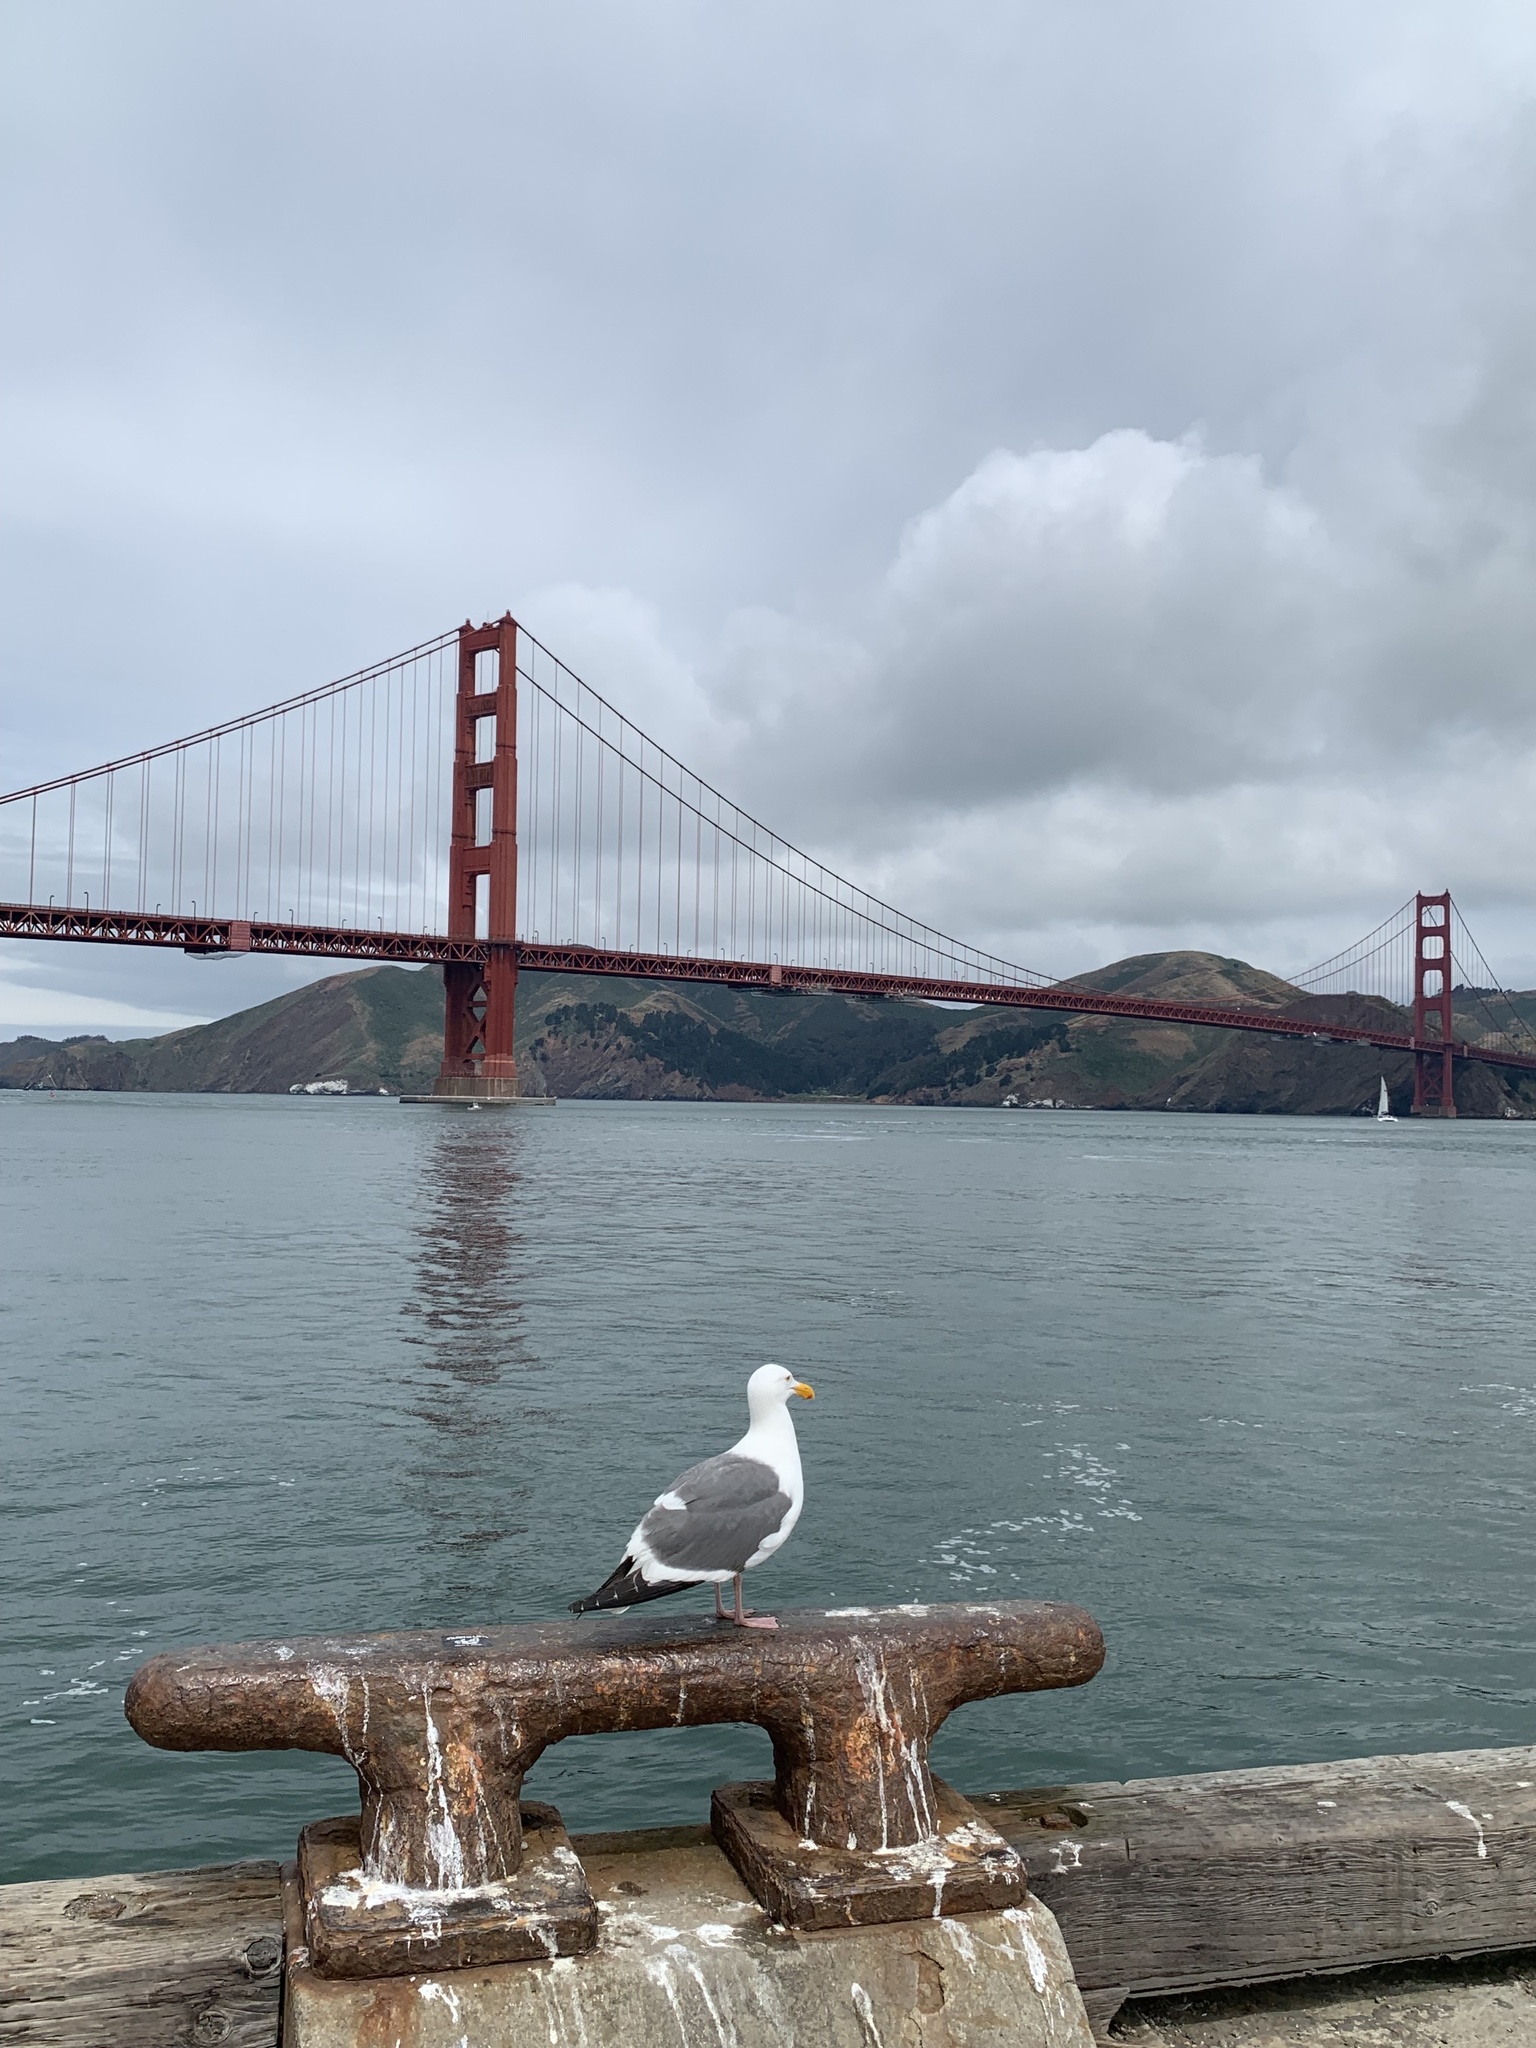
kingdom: Animalia
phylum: Chordata
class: Aves
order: Charadriiformes
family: Laridae
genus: Larus
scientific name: Larus occidentalis
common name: Western gull
